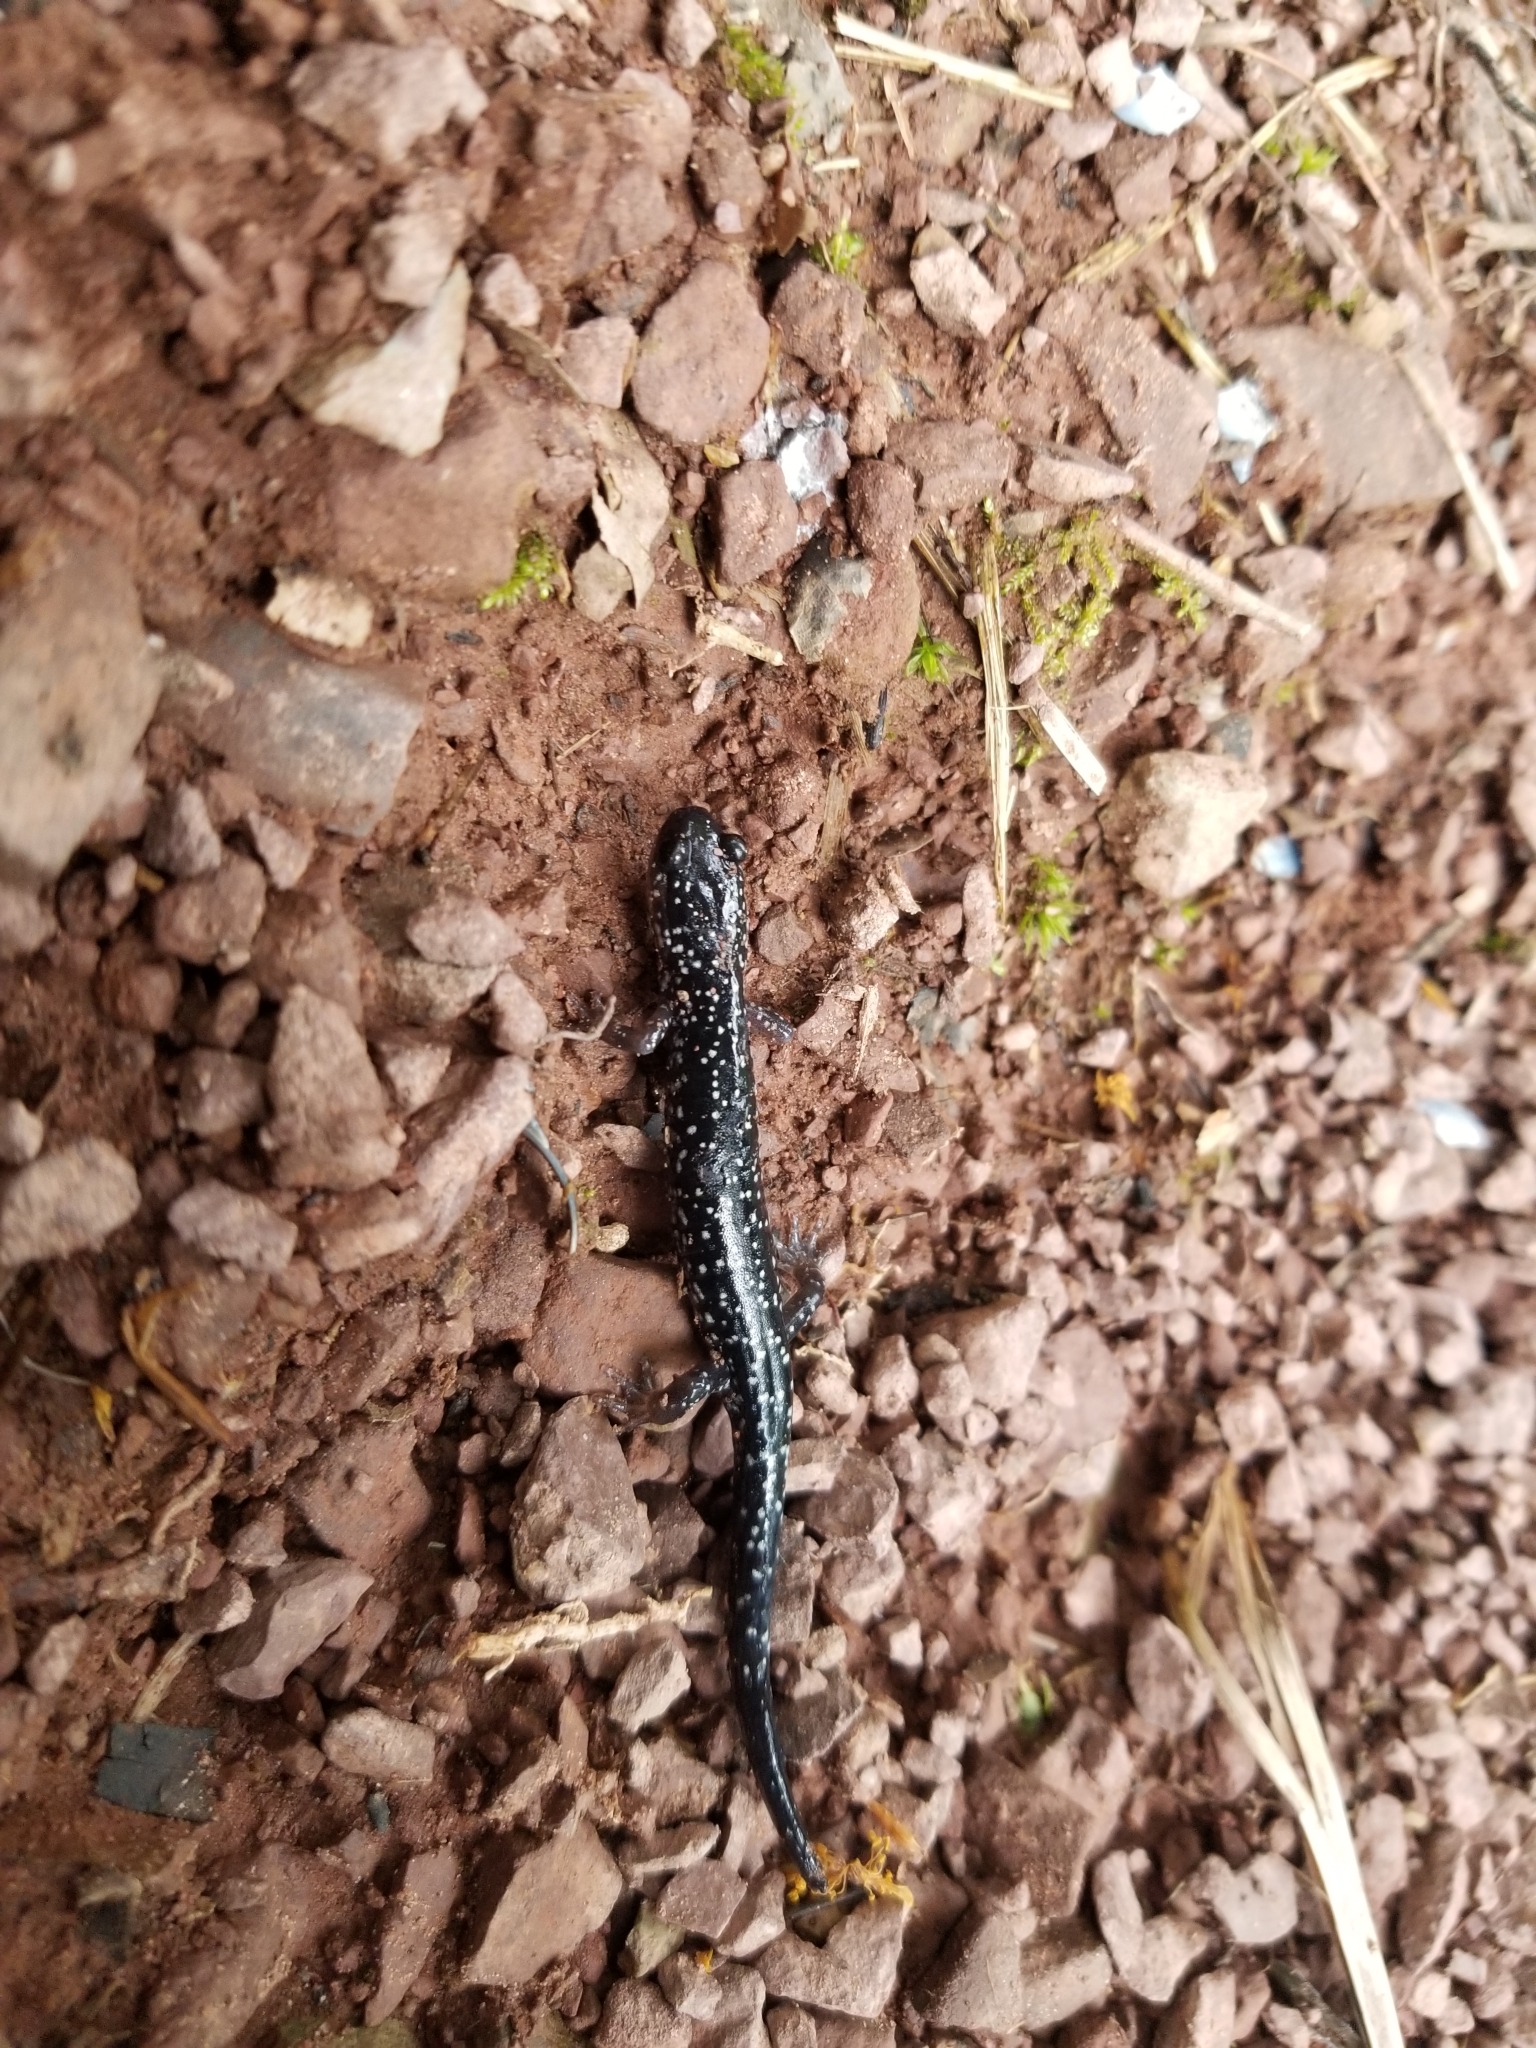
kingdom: Animalia
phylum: Chordata
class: Amphibia
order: Caudata
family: Plethodontidae
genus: Plethodon
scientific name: Plethodon cylindraceus
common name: White-spotted slimy salamander
